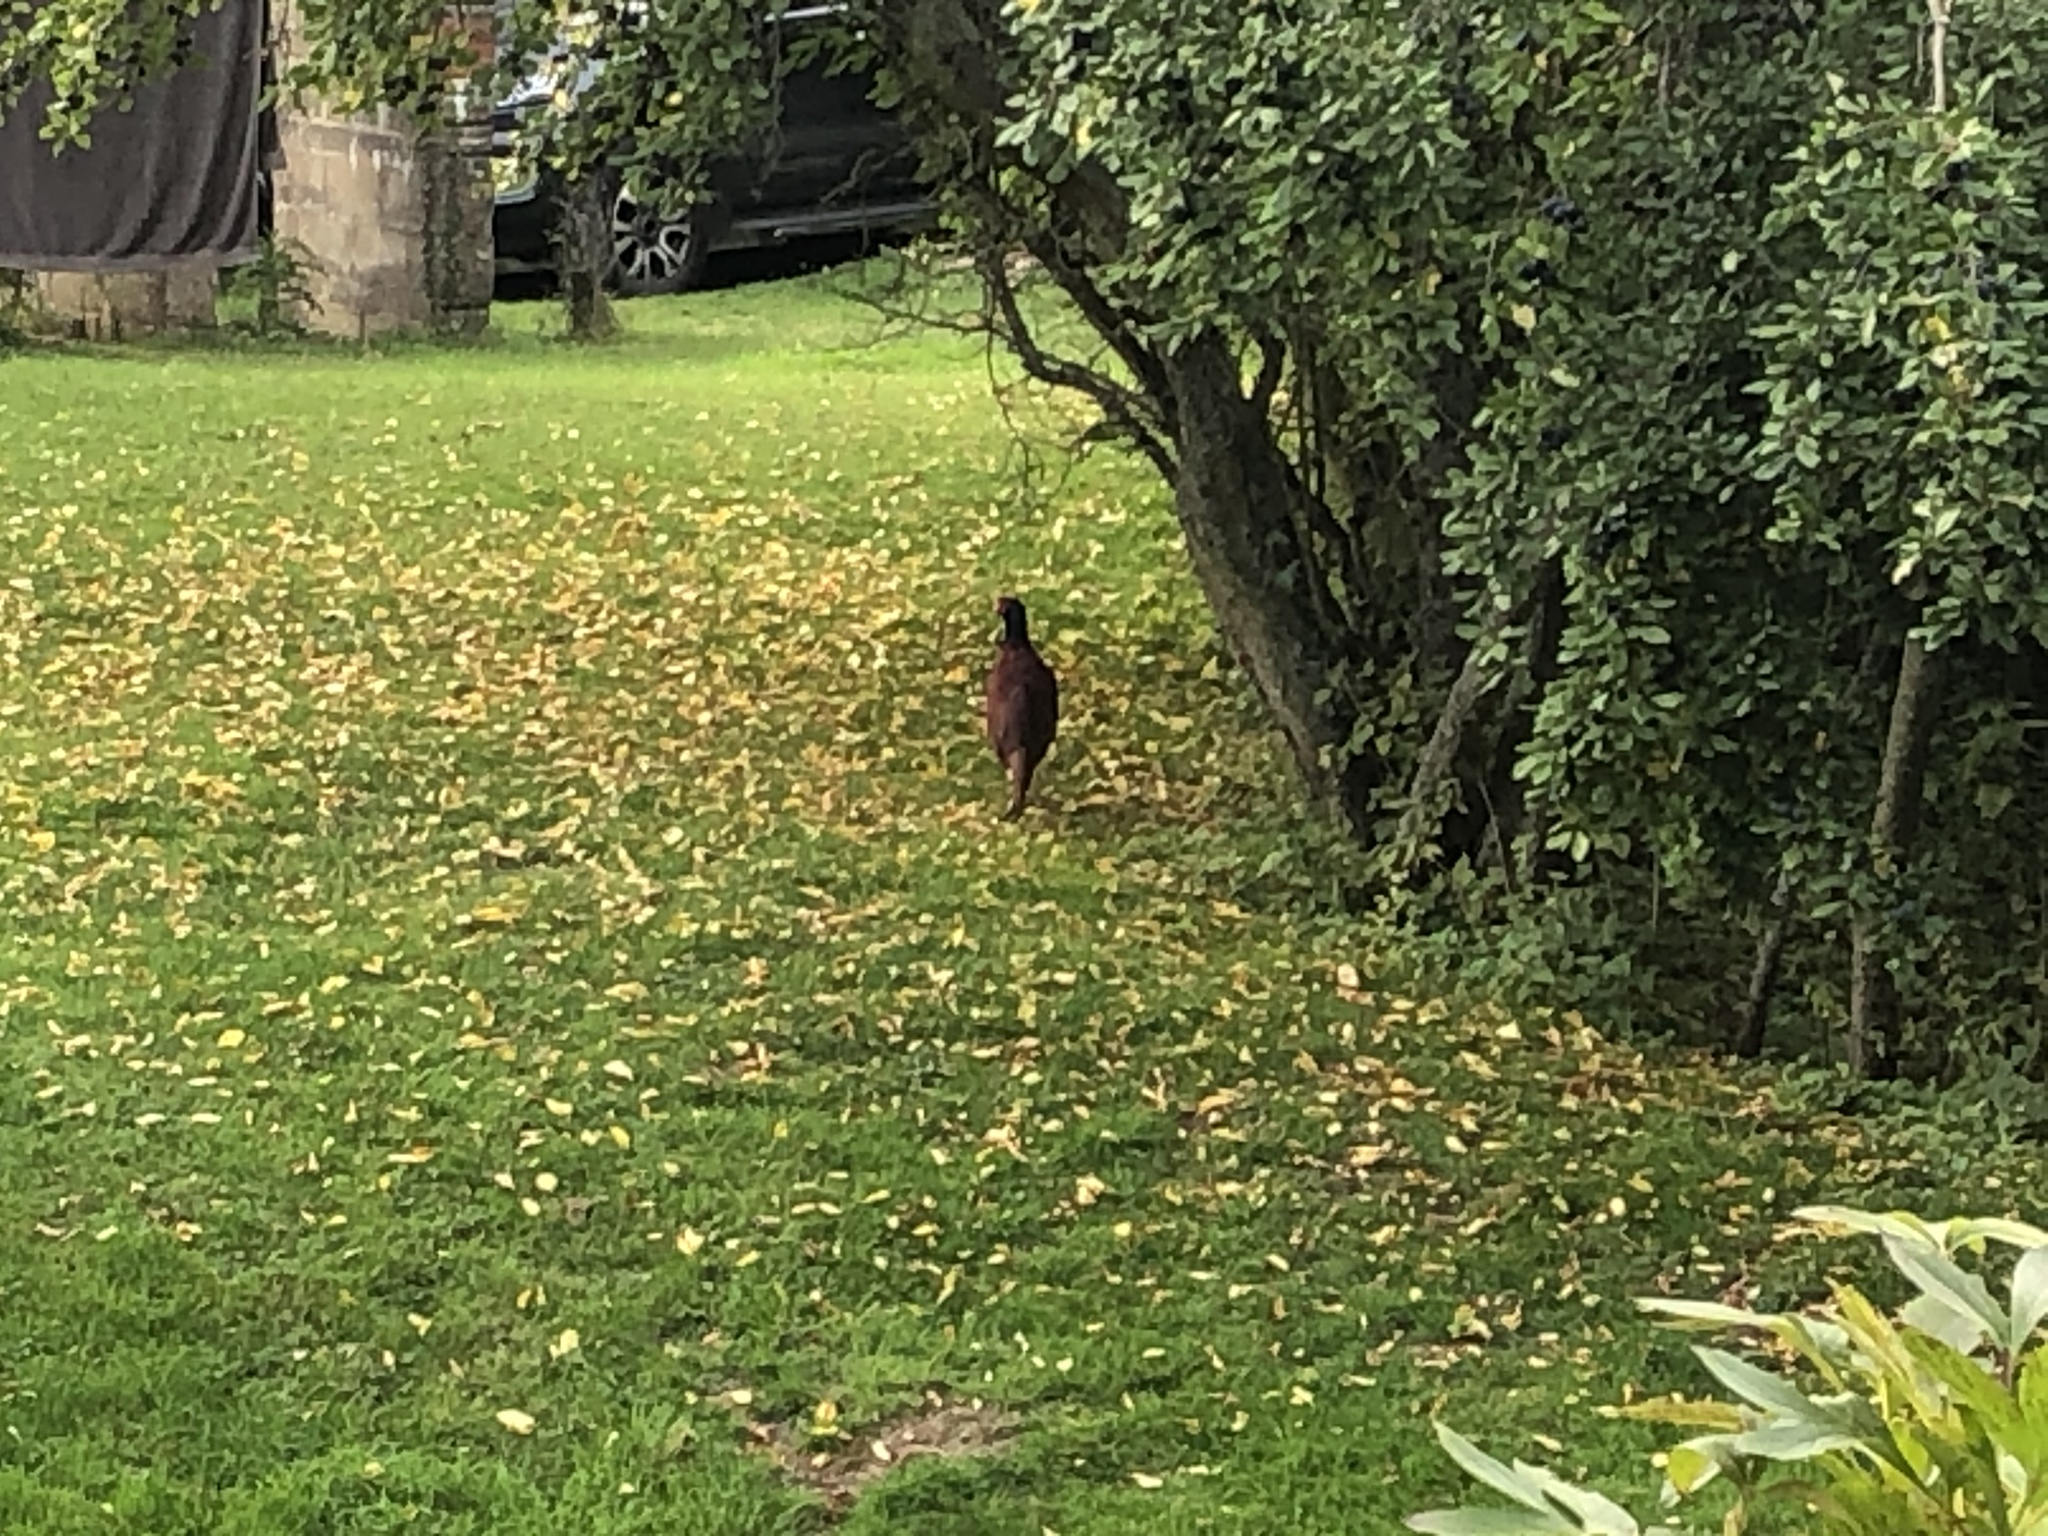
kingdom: Animalia
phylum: Chordata
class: Aves
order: Galliformes
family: Phasianidae
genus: Phasianus
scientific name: Phasianus colchicus
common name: Common pheasant
